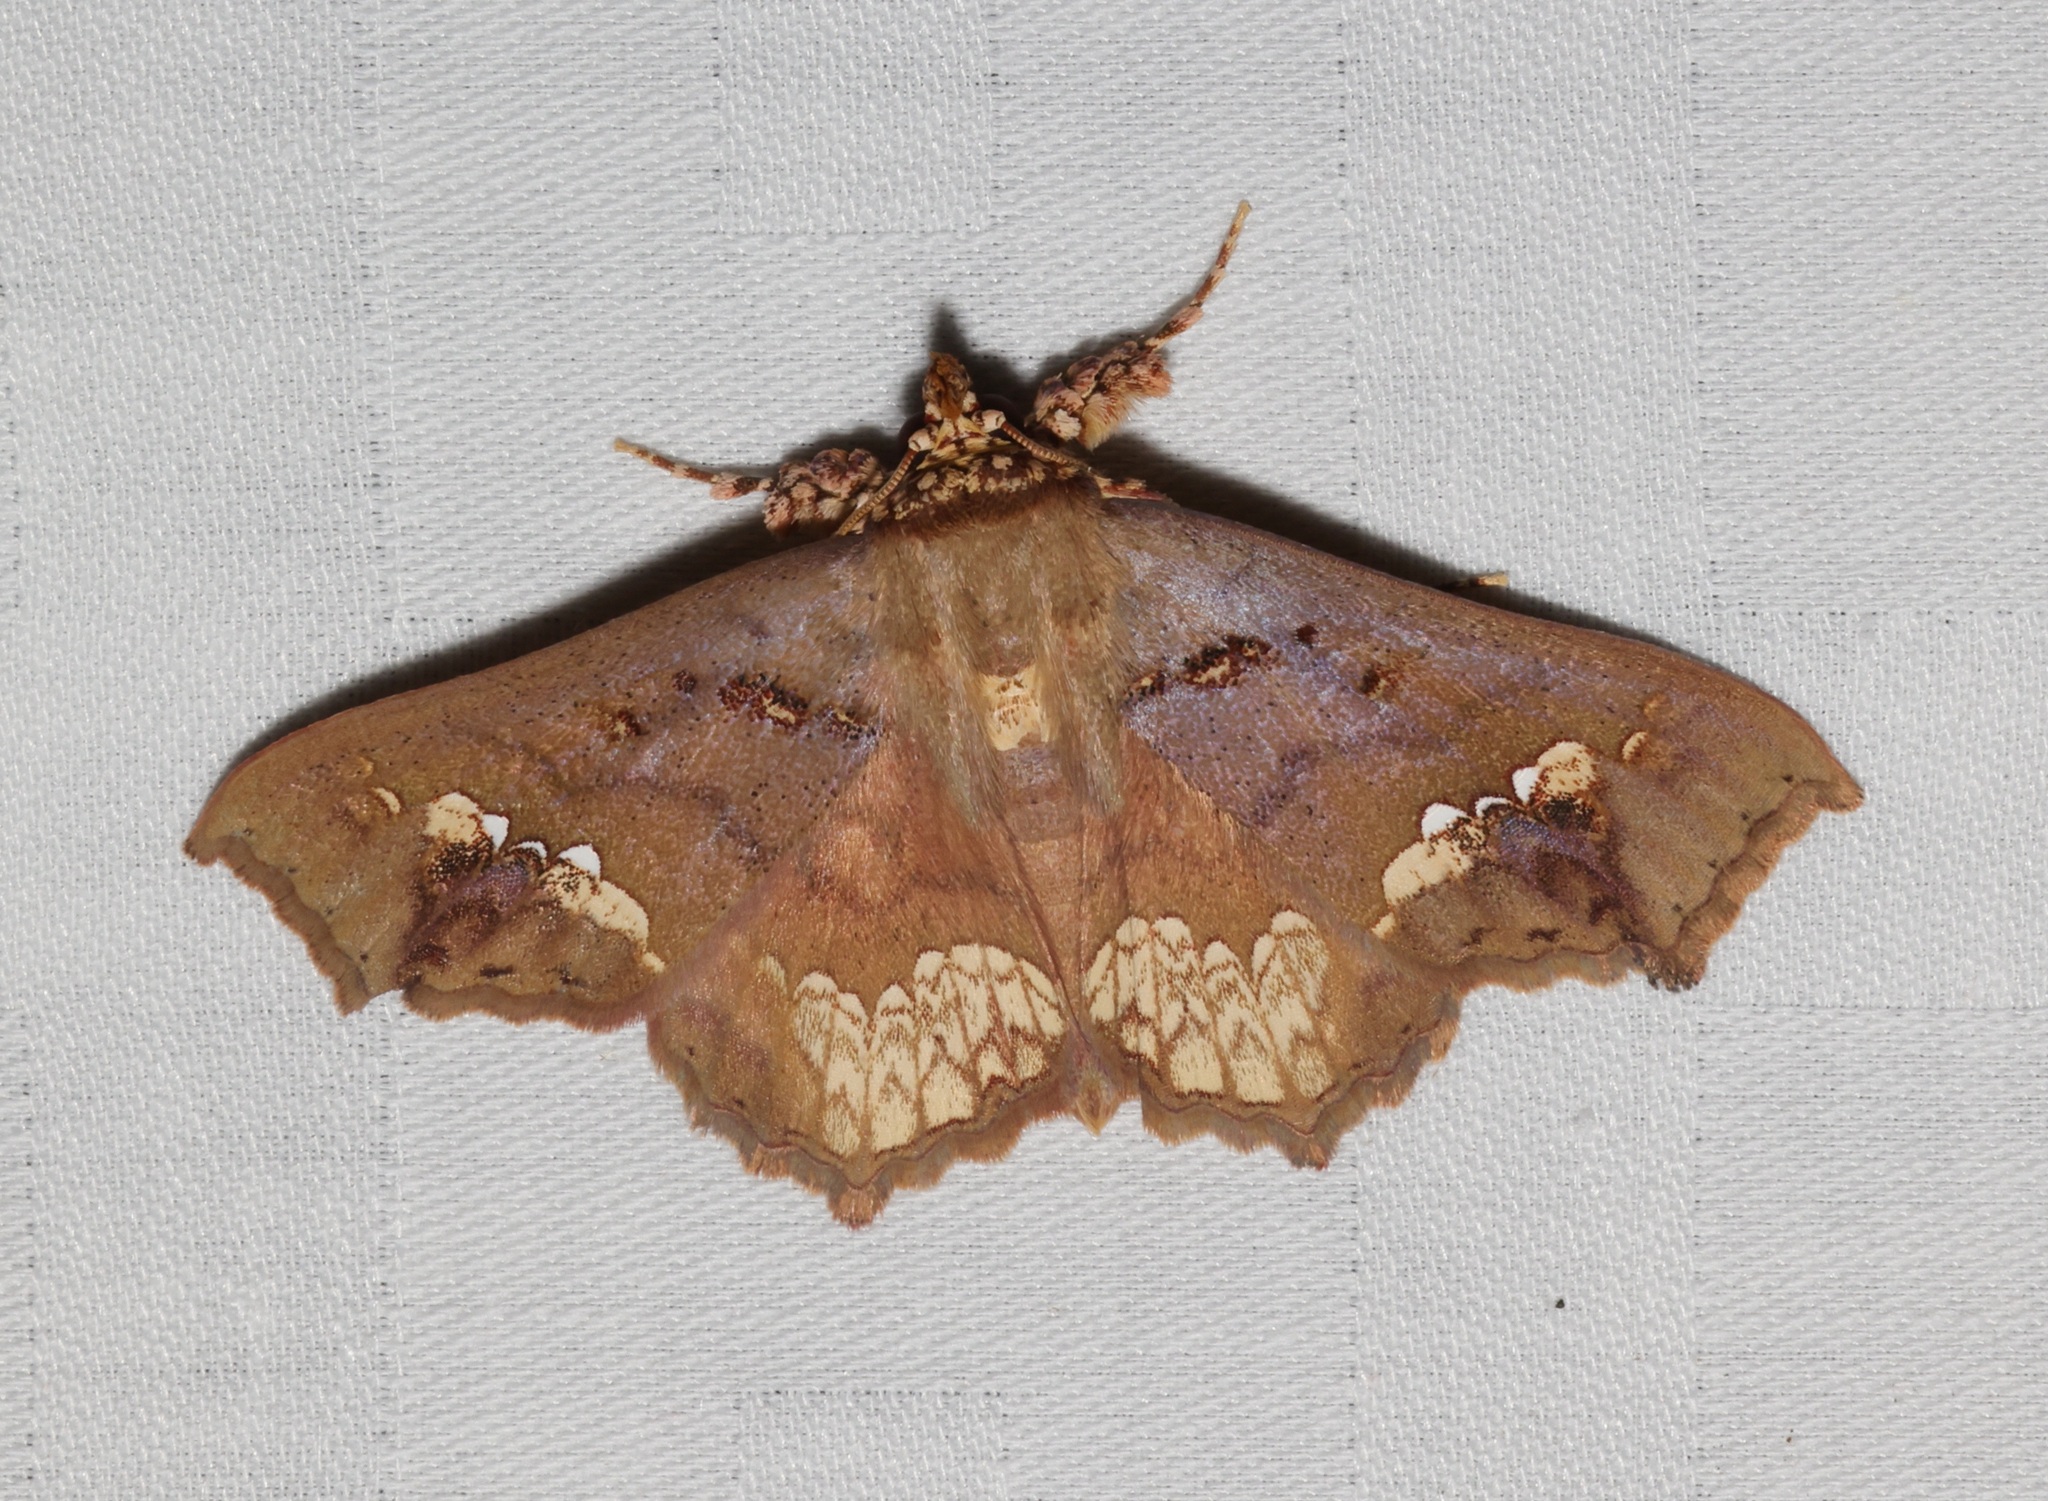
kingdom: Animalia
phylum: Arthropoda
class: Insecta
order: Lepidoptera
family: Erebidae
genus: Lopharthrum
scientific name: Lopharthrum comprimens
